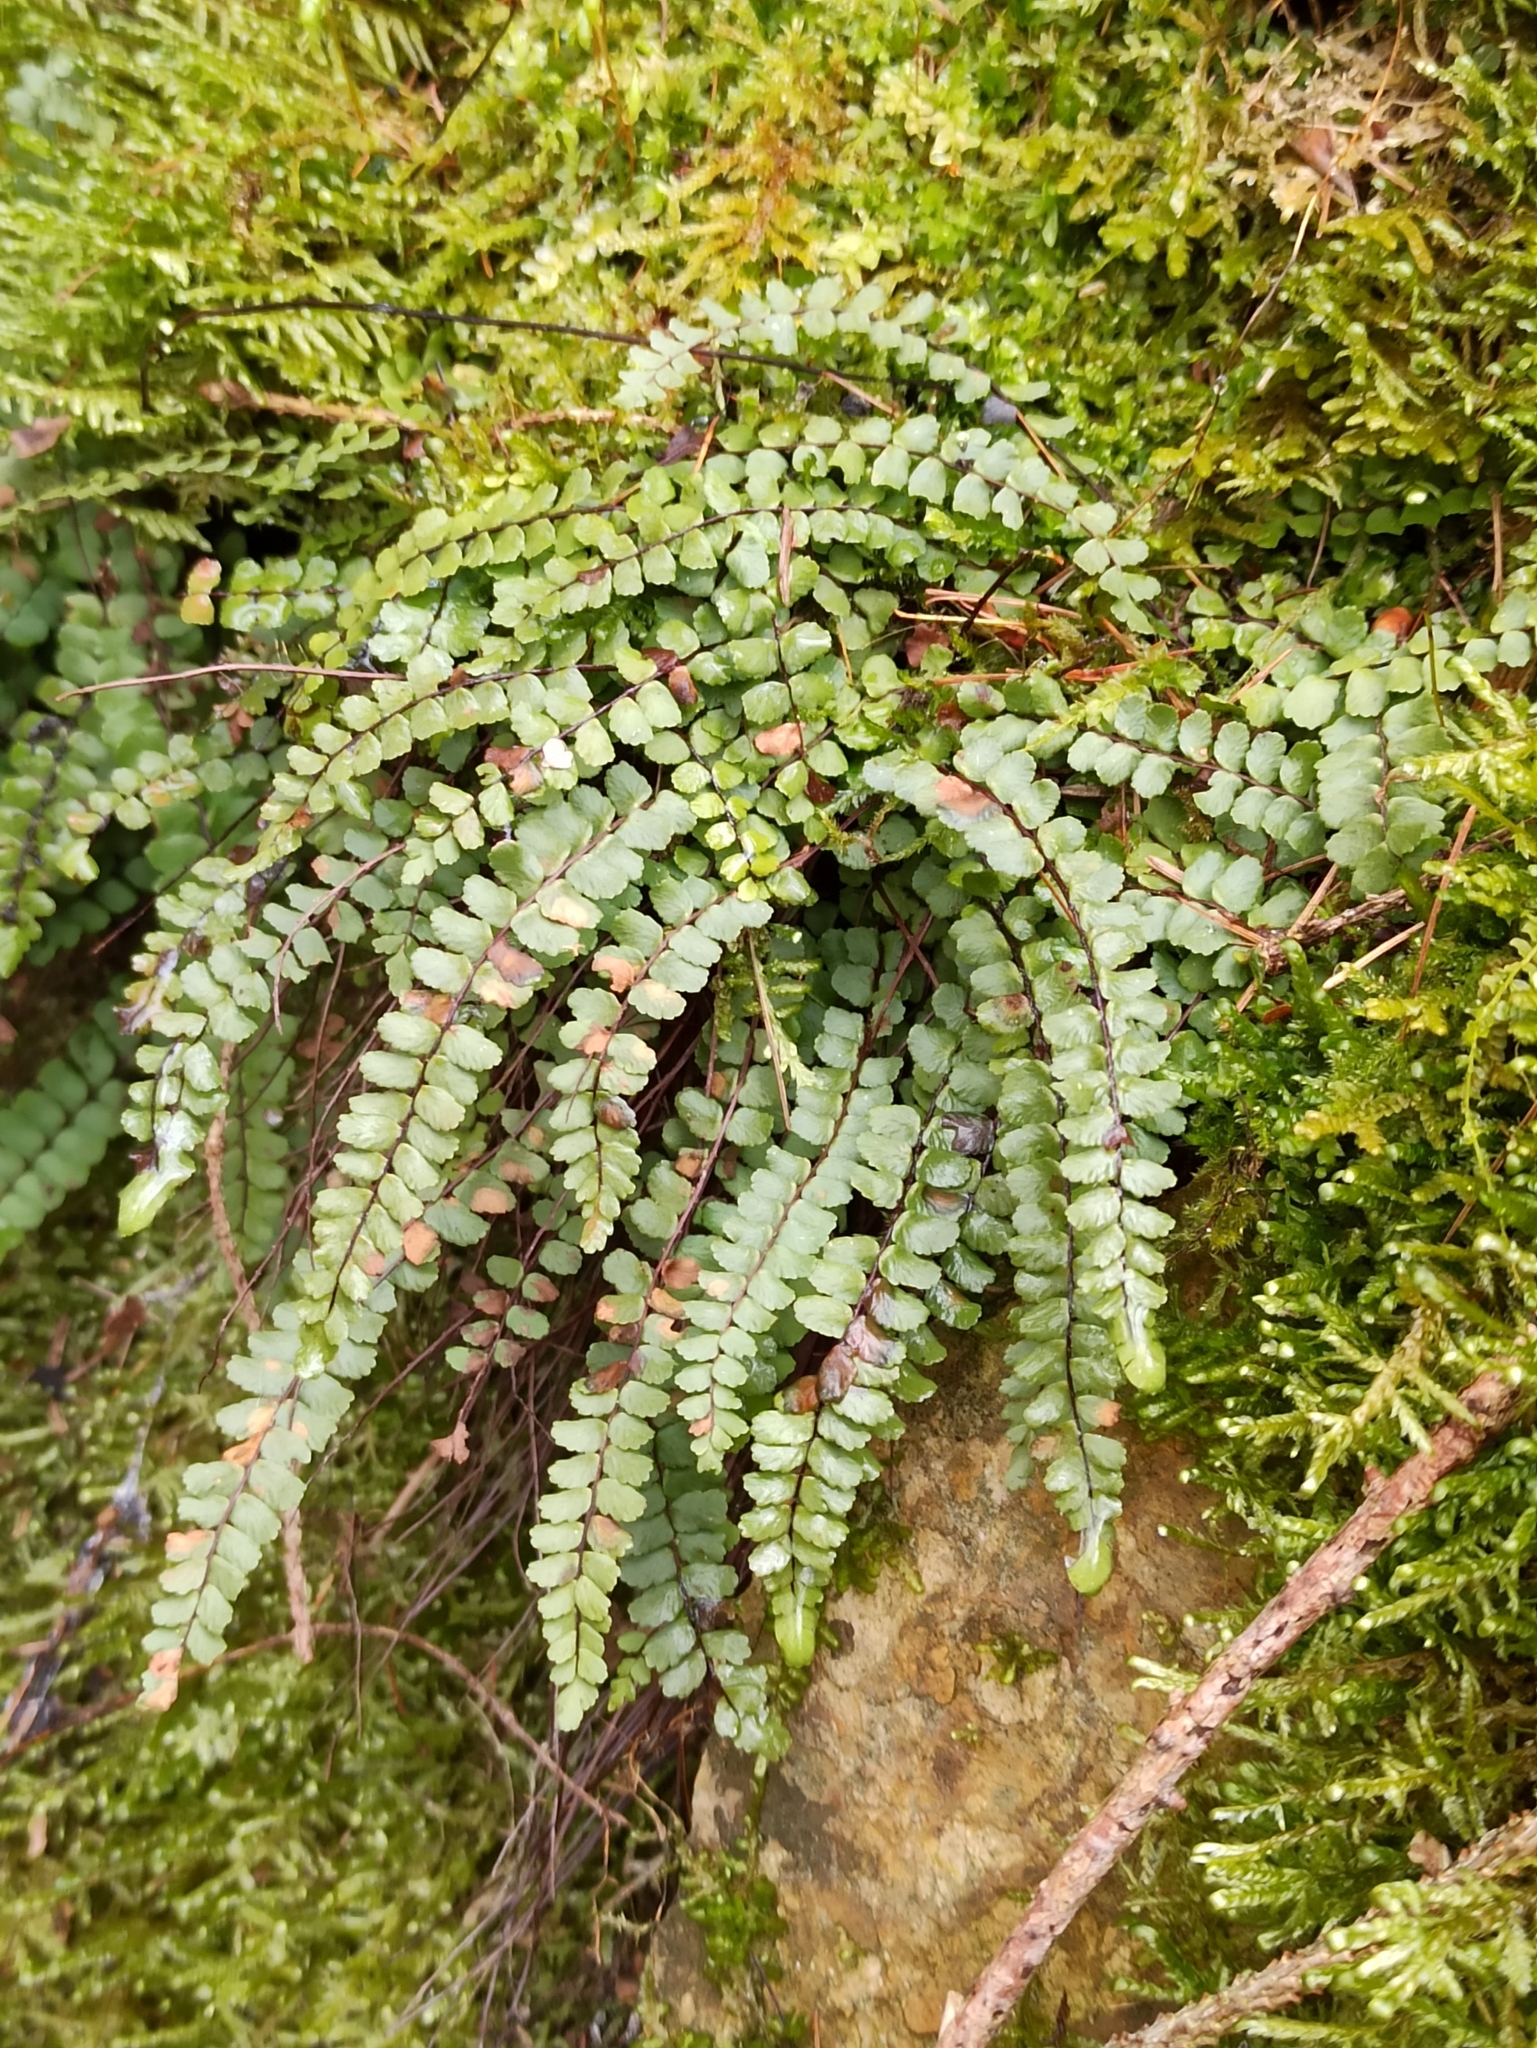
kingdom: Plantae
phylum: Tracheophyta
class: Polypodiopsida
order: Polypodiales
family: Aspleniaceae
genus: Asplenium
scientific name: Asplenium trichomanes
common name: Maidenhair spleenwort
